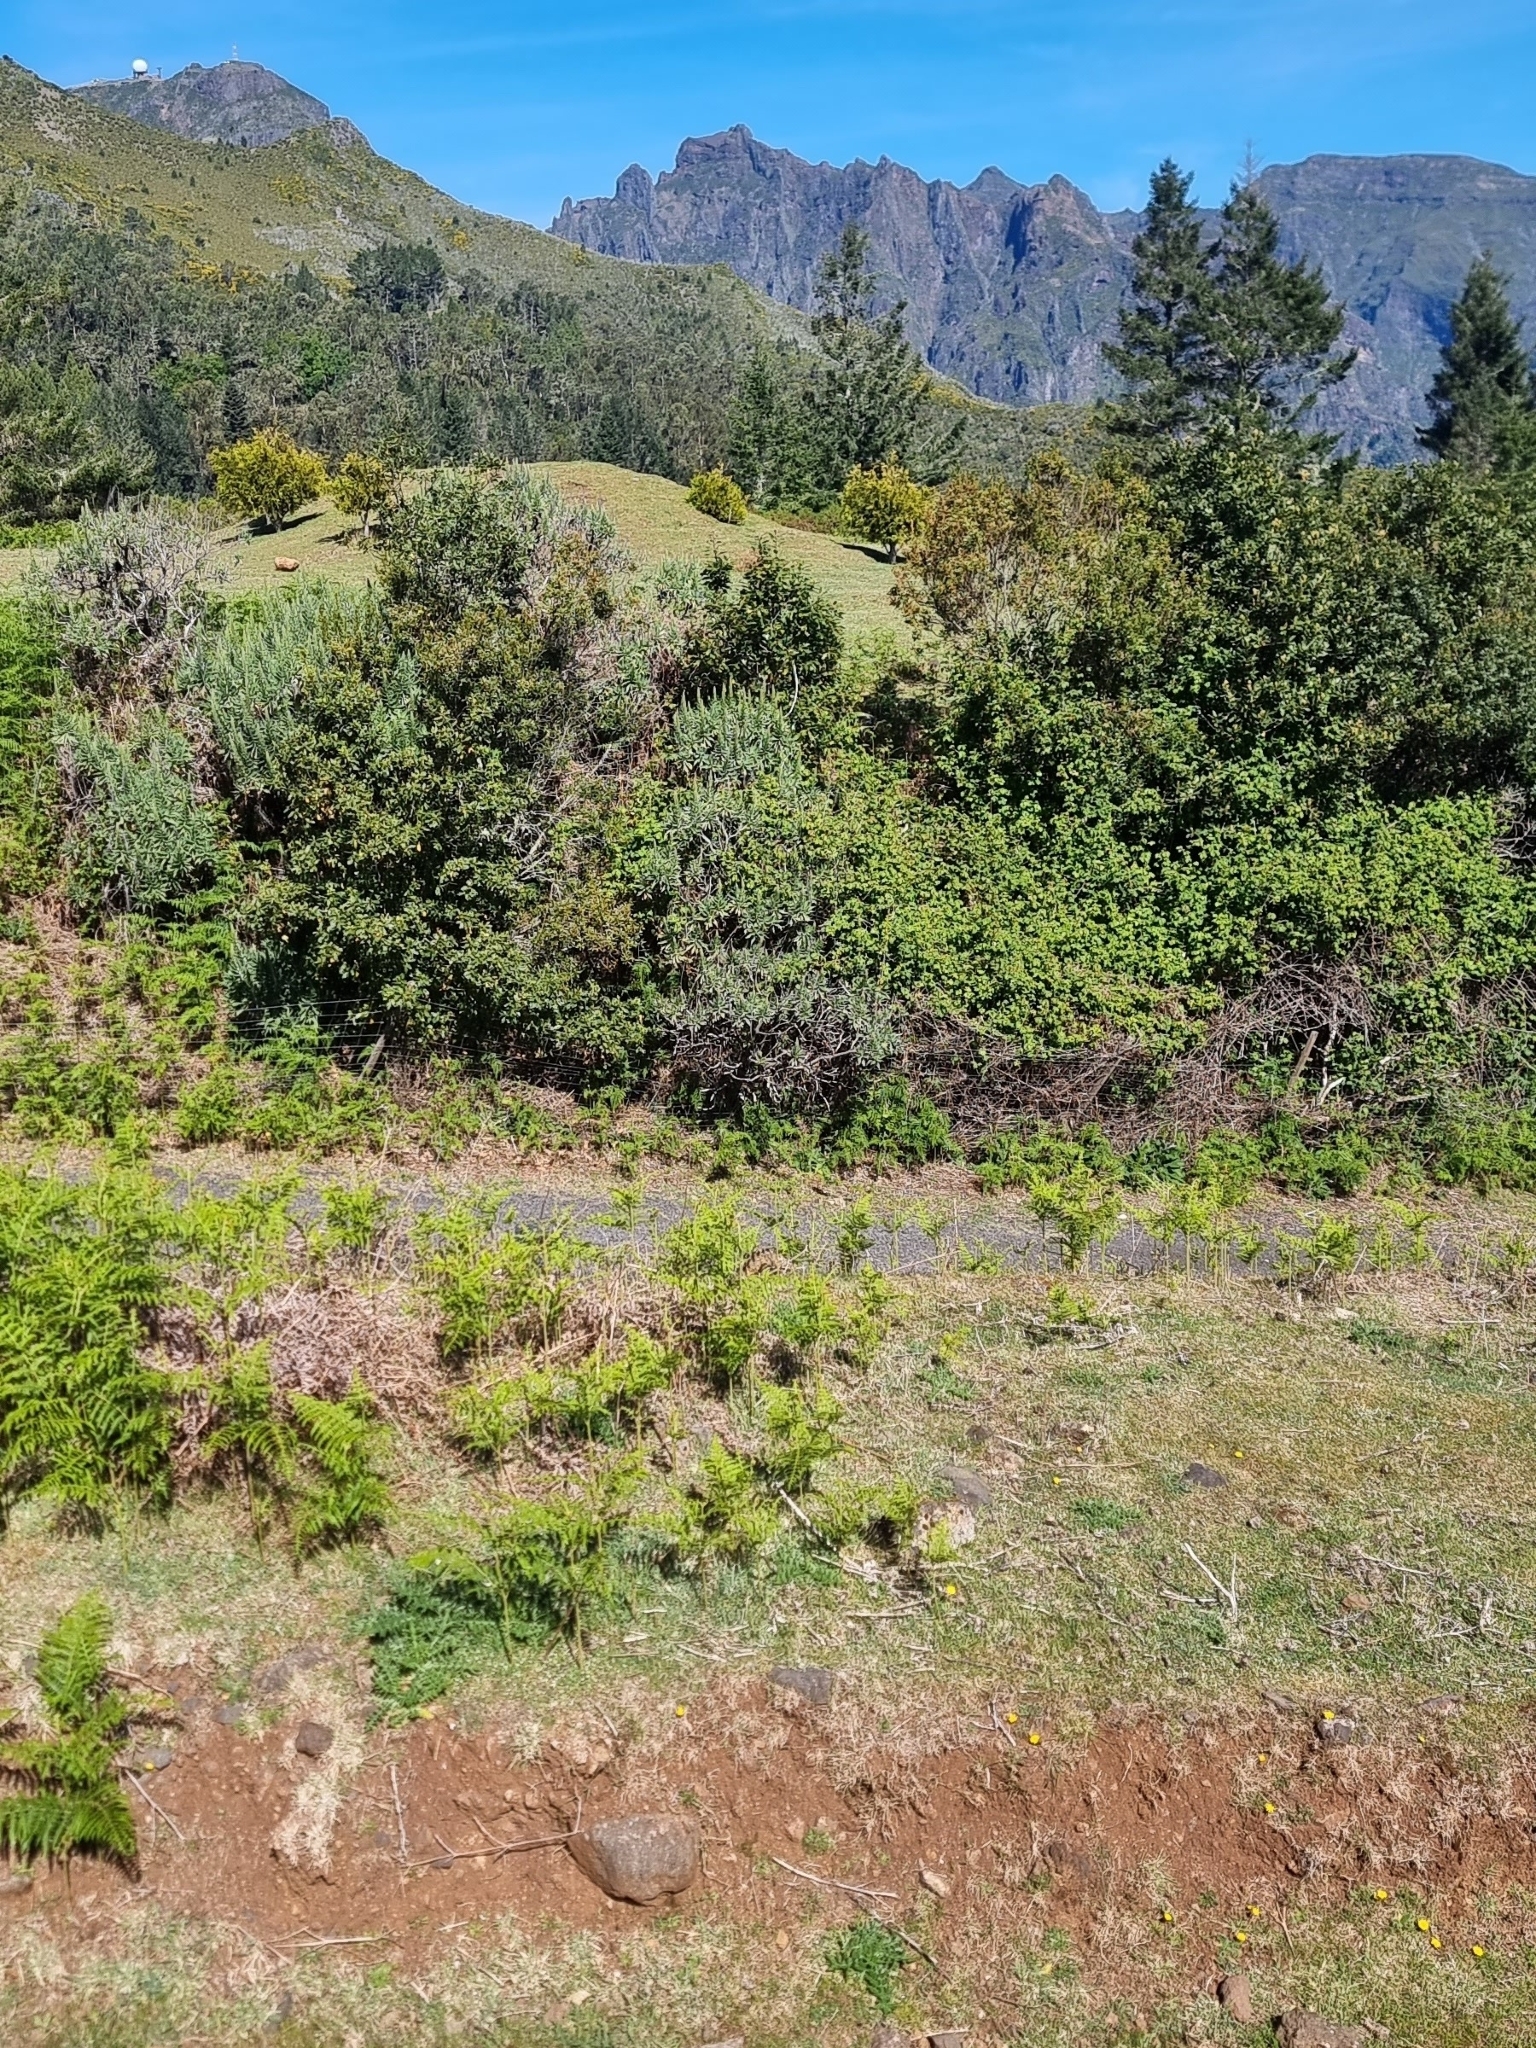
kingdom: Plantae
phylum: Tracheophyta
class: Magnoliopsida
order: Boraginales
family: Boraginaceae
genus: Echium
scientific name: Echium candicans
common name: Pride of madeira
